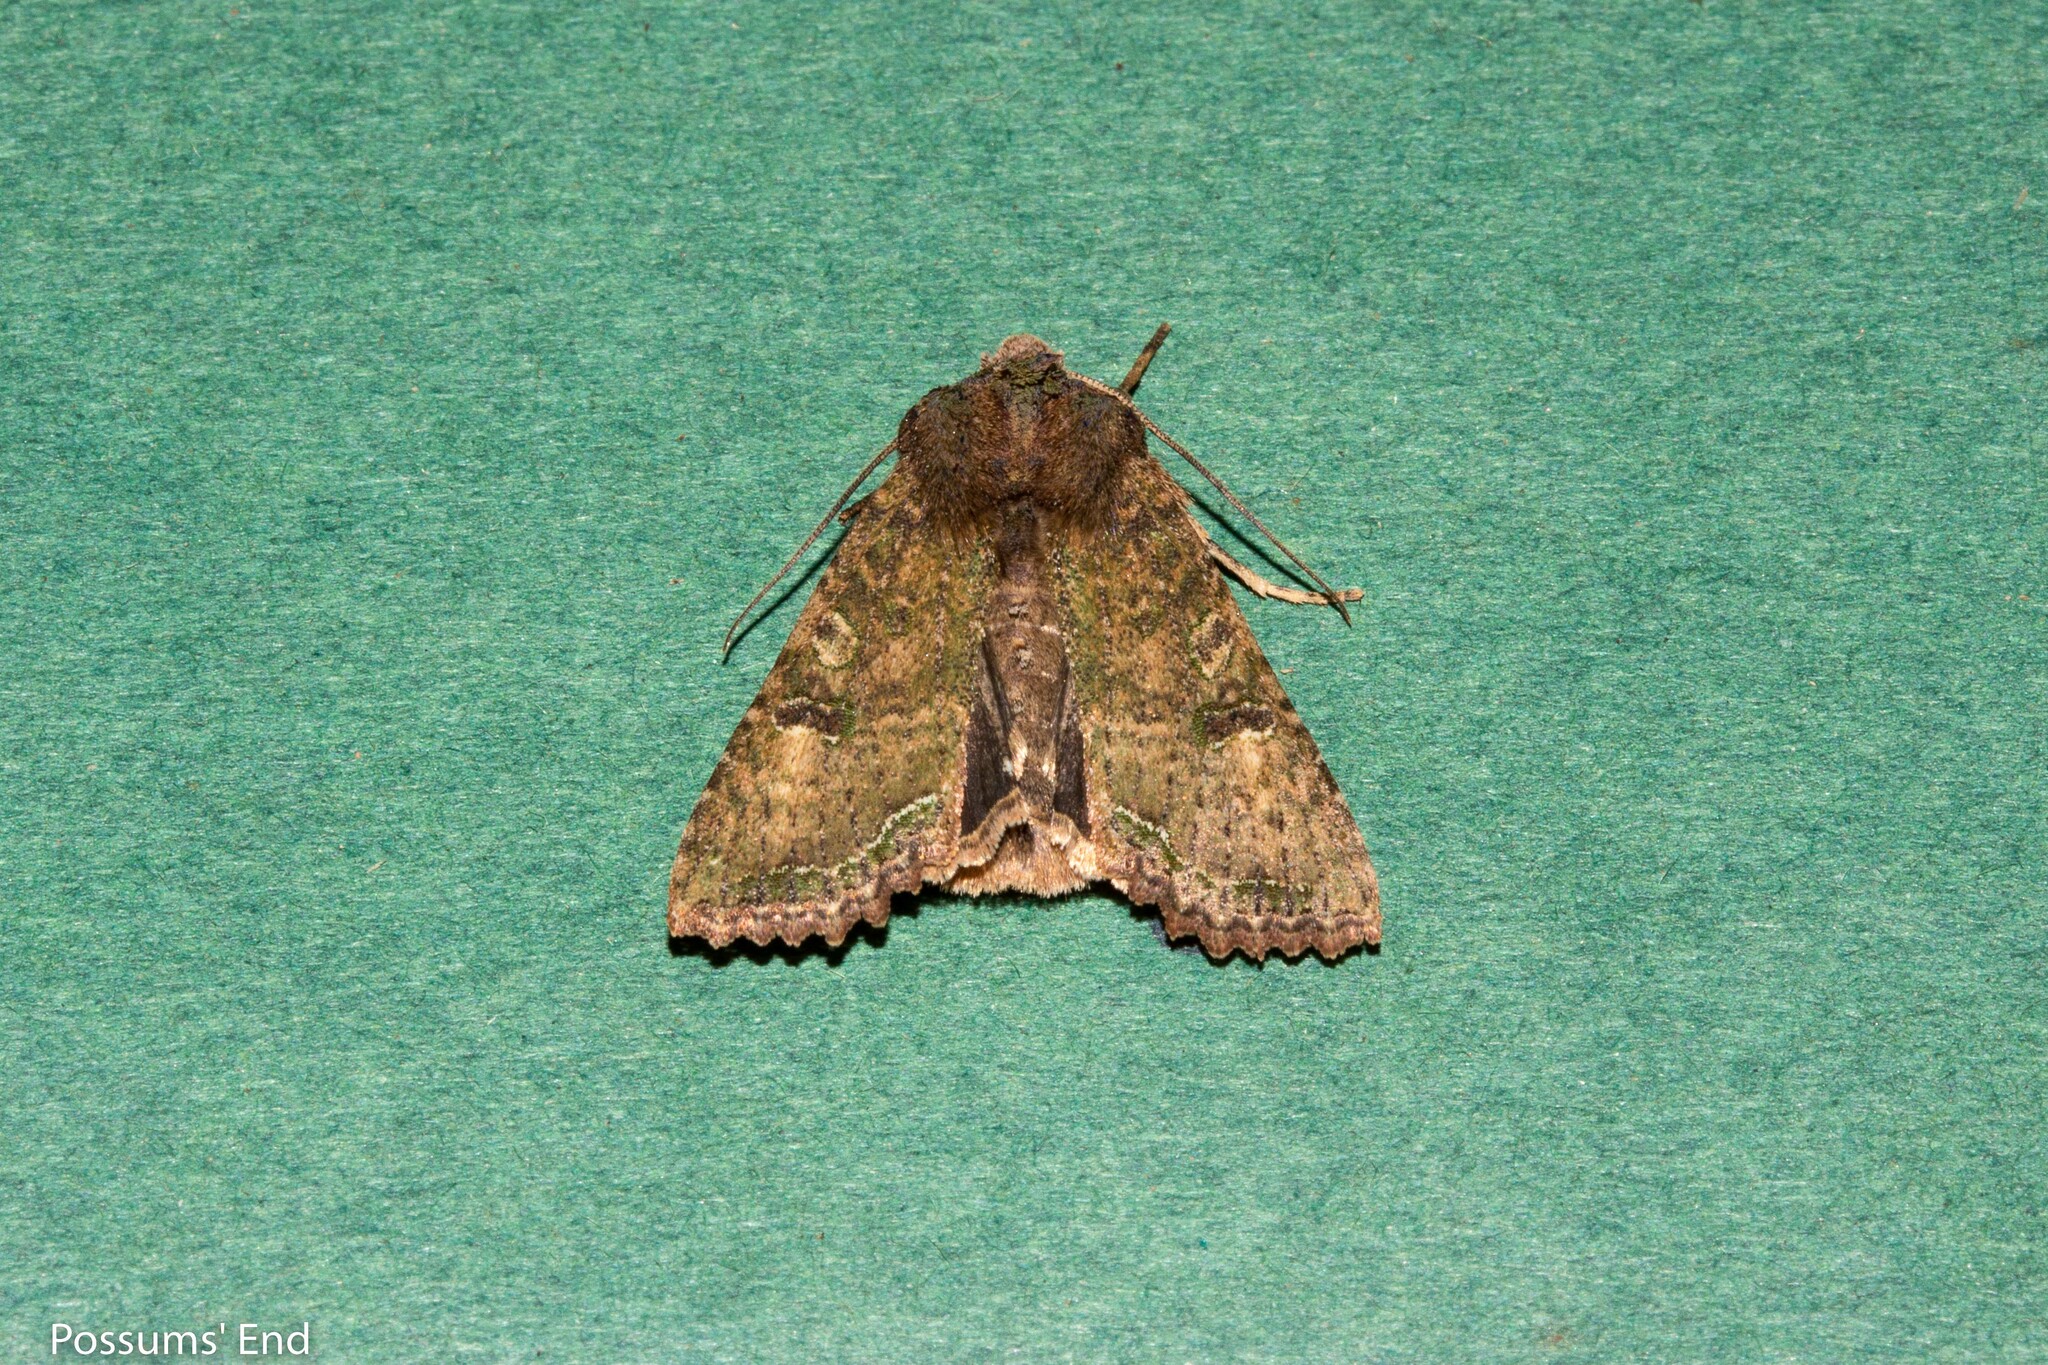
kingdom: Animalia
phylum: Arthropoda
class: Insecta
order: Lepidoptera
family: Noctuidae
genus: Meterana
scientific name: Meterana inchoata
